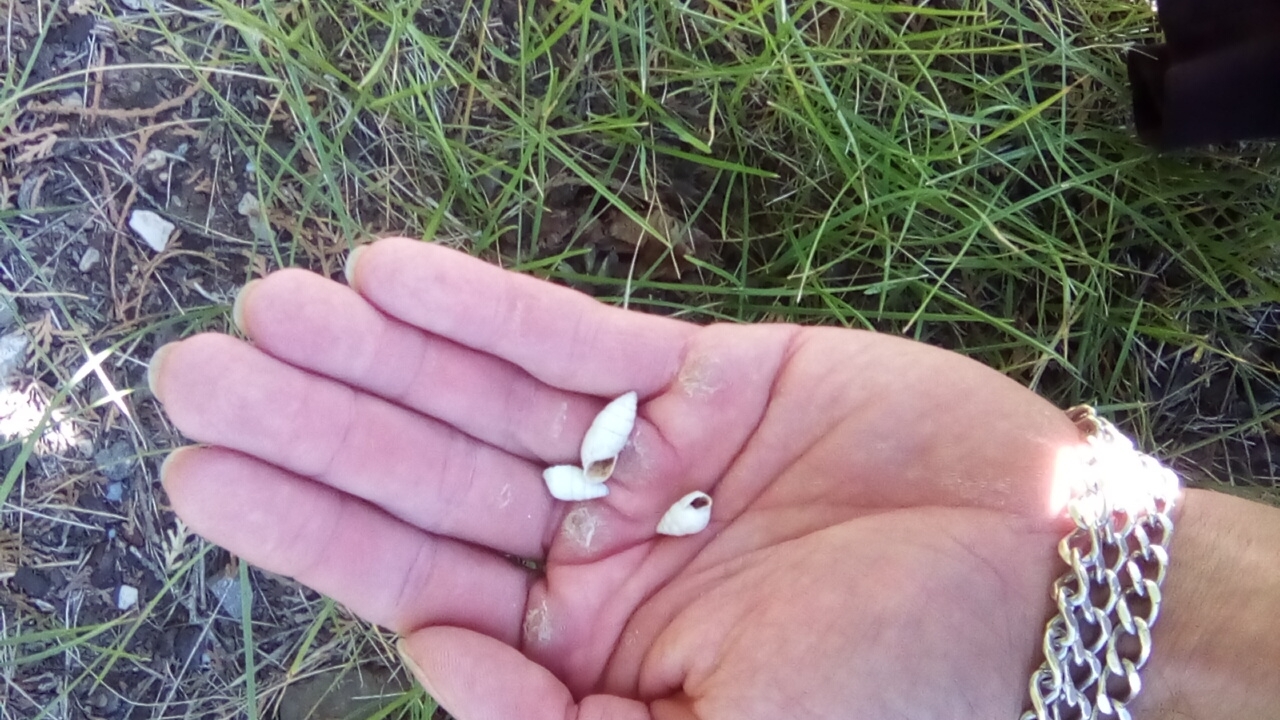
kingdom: Animalia
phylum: Mollusca
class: Gastropoda
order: Stylommatophora
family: Enidae
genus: Brephulopsis
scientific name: Brephulopsis cylindrica
